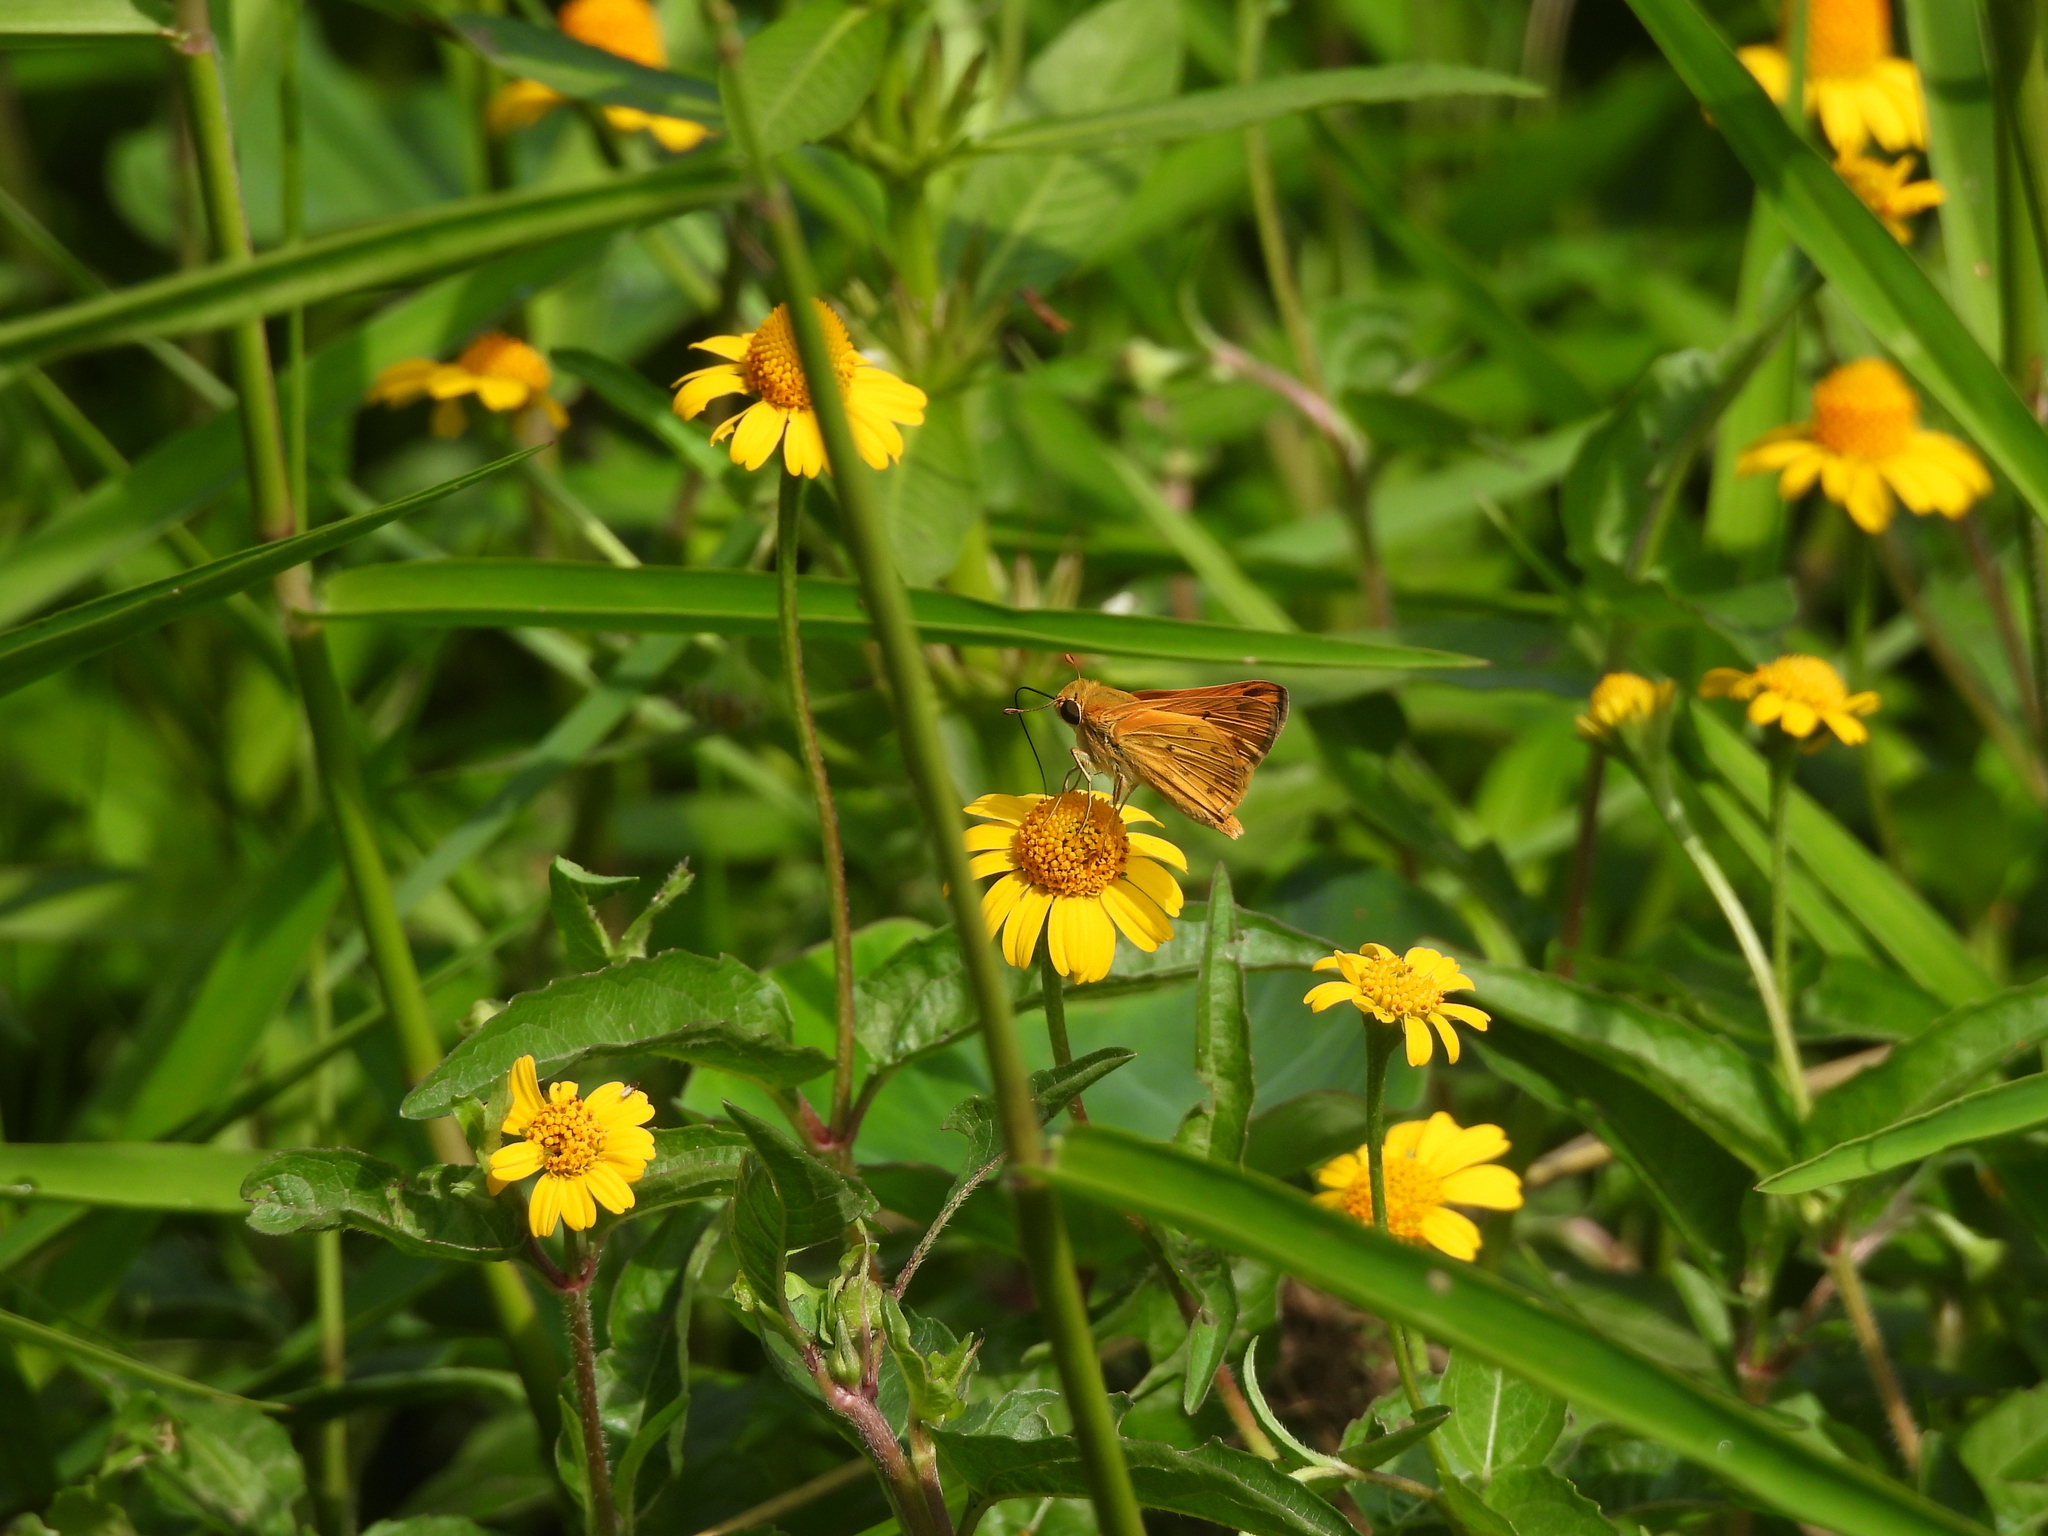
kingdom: Animalia
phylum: Arthropoda
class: Insecta
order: Lepidoptera
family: Hesperiidae
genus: Hylephila
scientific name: Hylephila phyleus
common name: Fiery skipper
